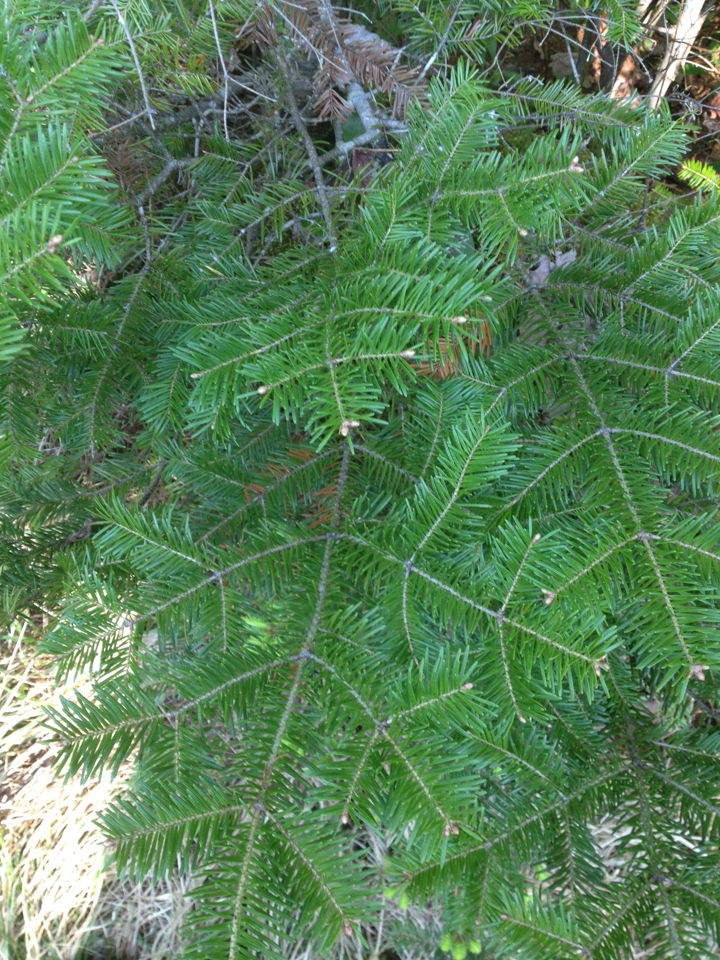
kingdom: Plantae
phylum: Tracheophyta
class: Pinopsida
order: Pinales
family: Pinaceae
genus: Abies
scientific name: Abies balsamea
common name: Balsam fir
